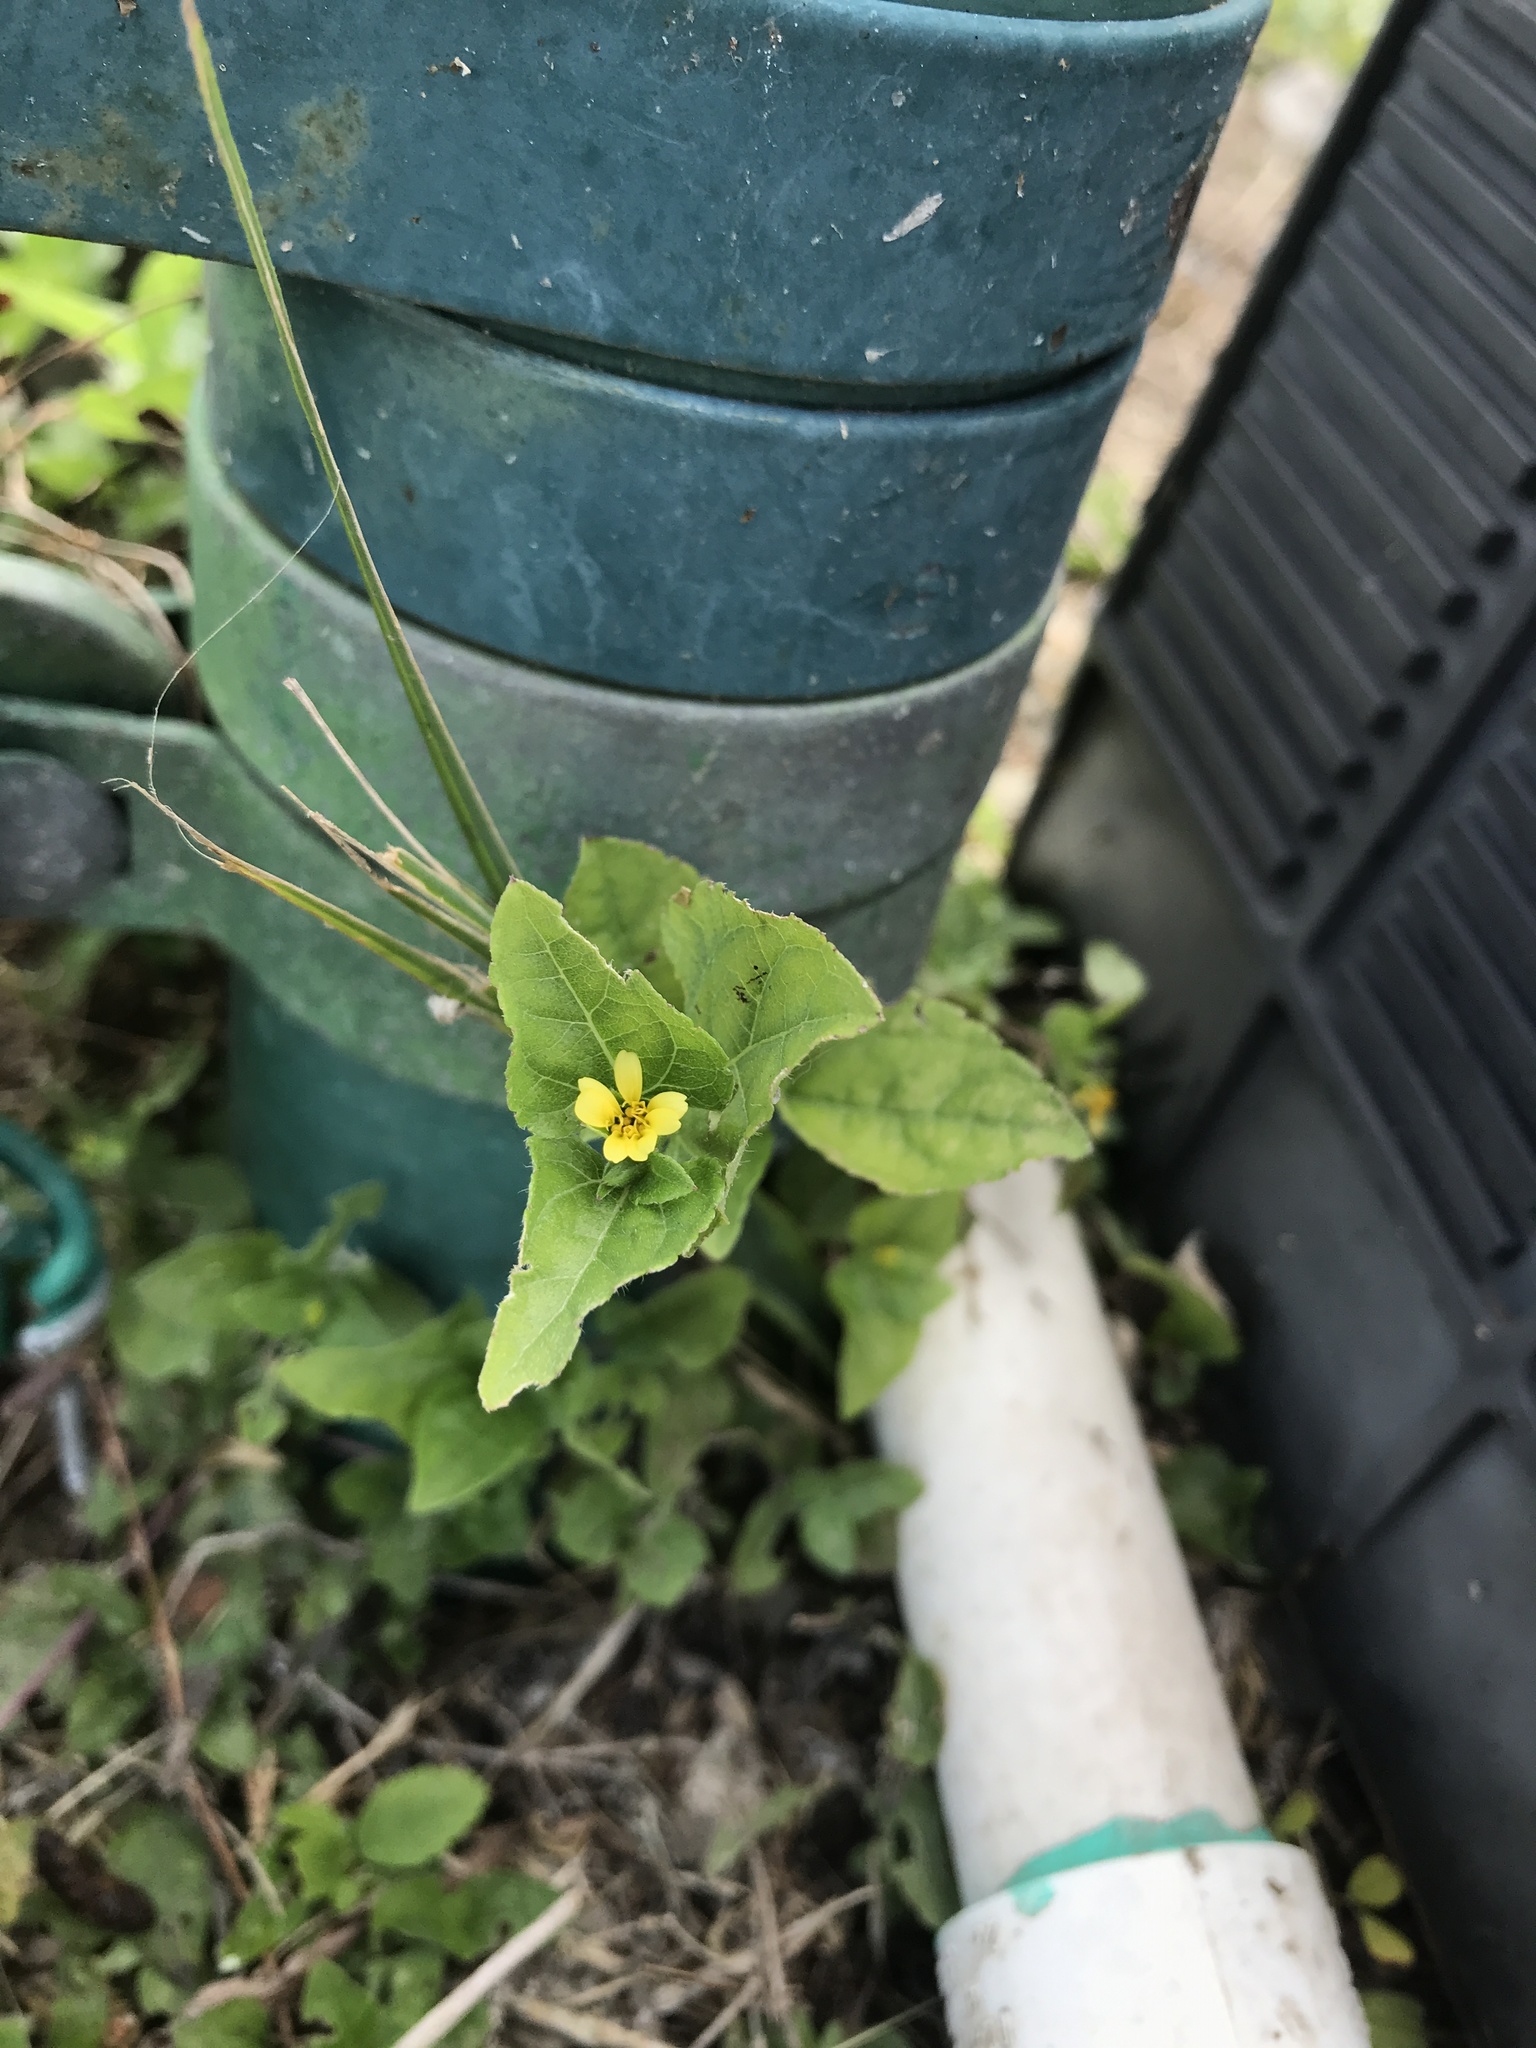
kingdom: Plantae
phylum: Tracheophyta
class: Magnoliopsida
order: Asterales
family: Asteraceae
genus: Calyptocarpus
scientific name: Calyptocarpus vialis
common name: Straggler daisy
